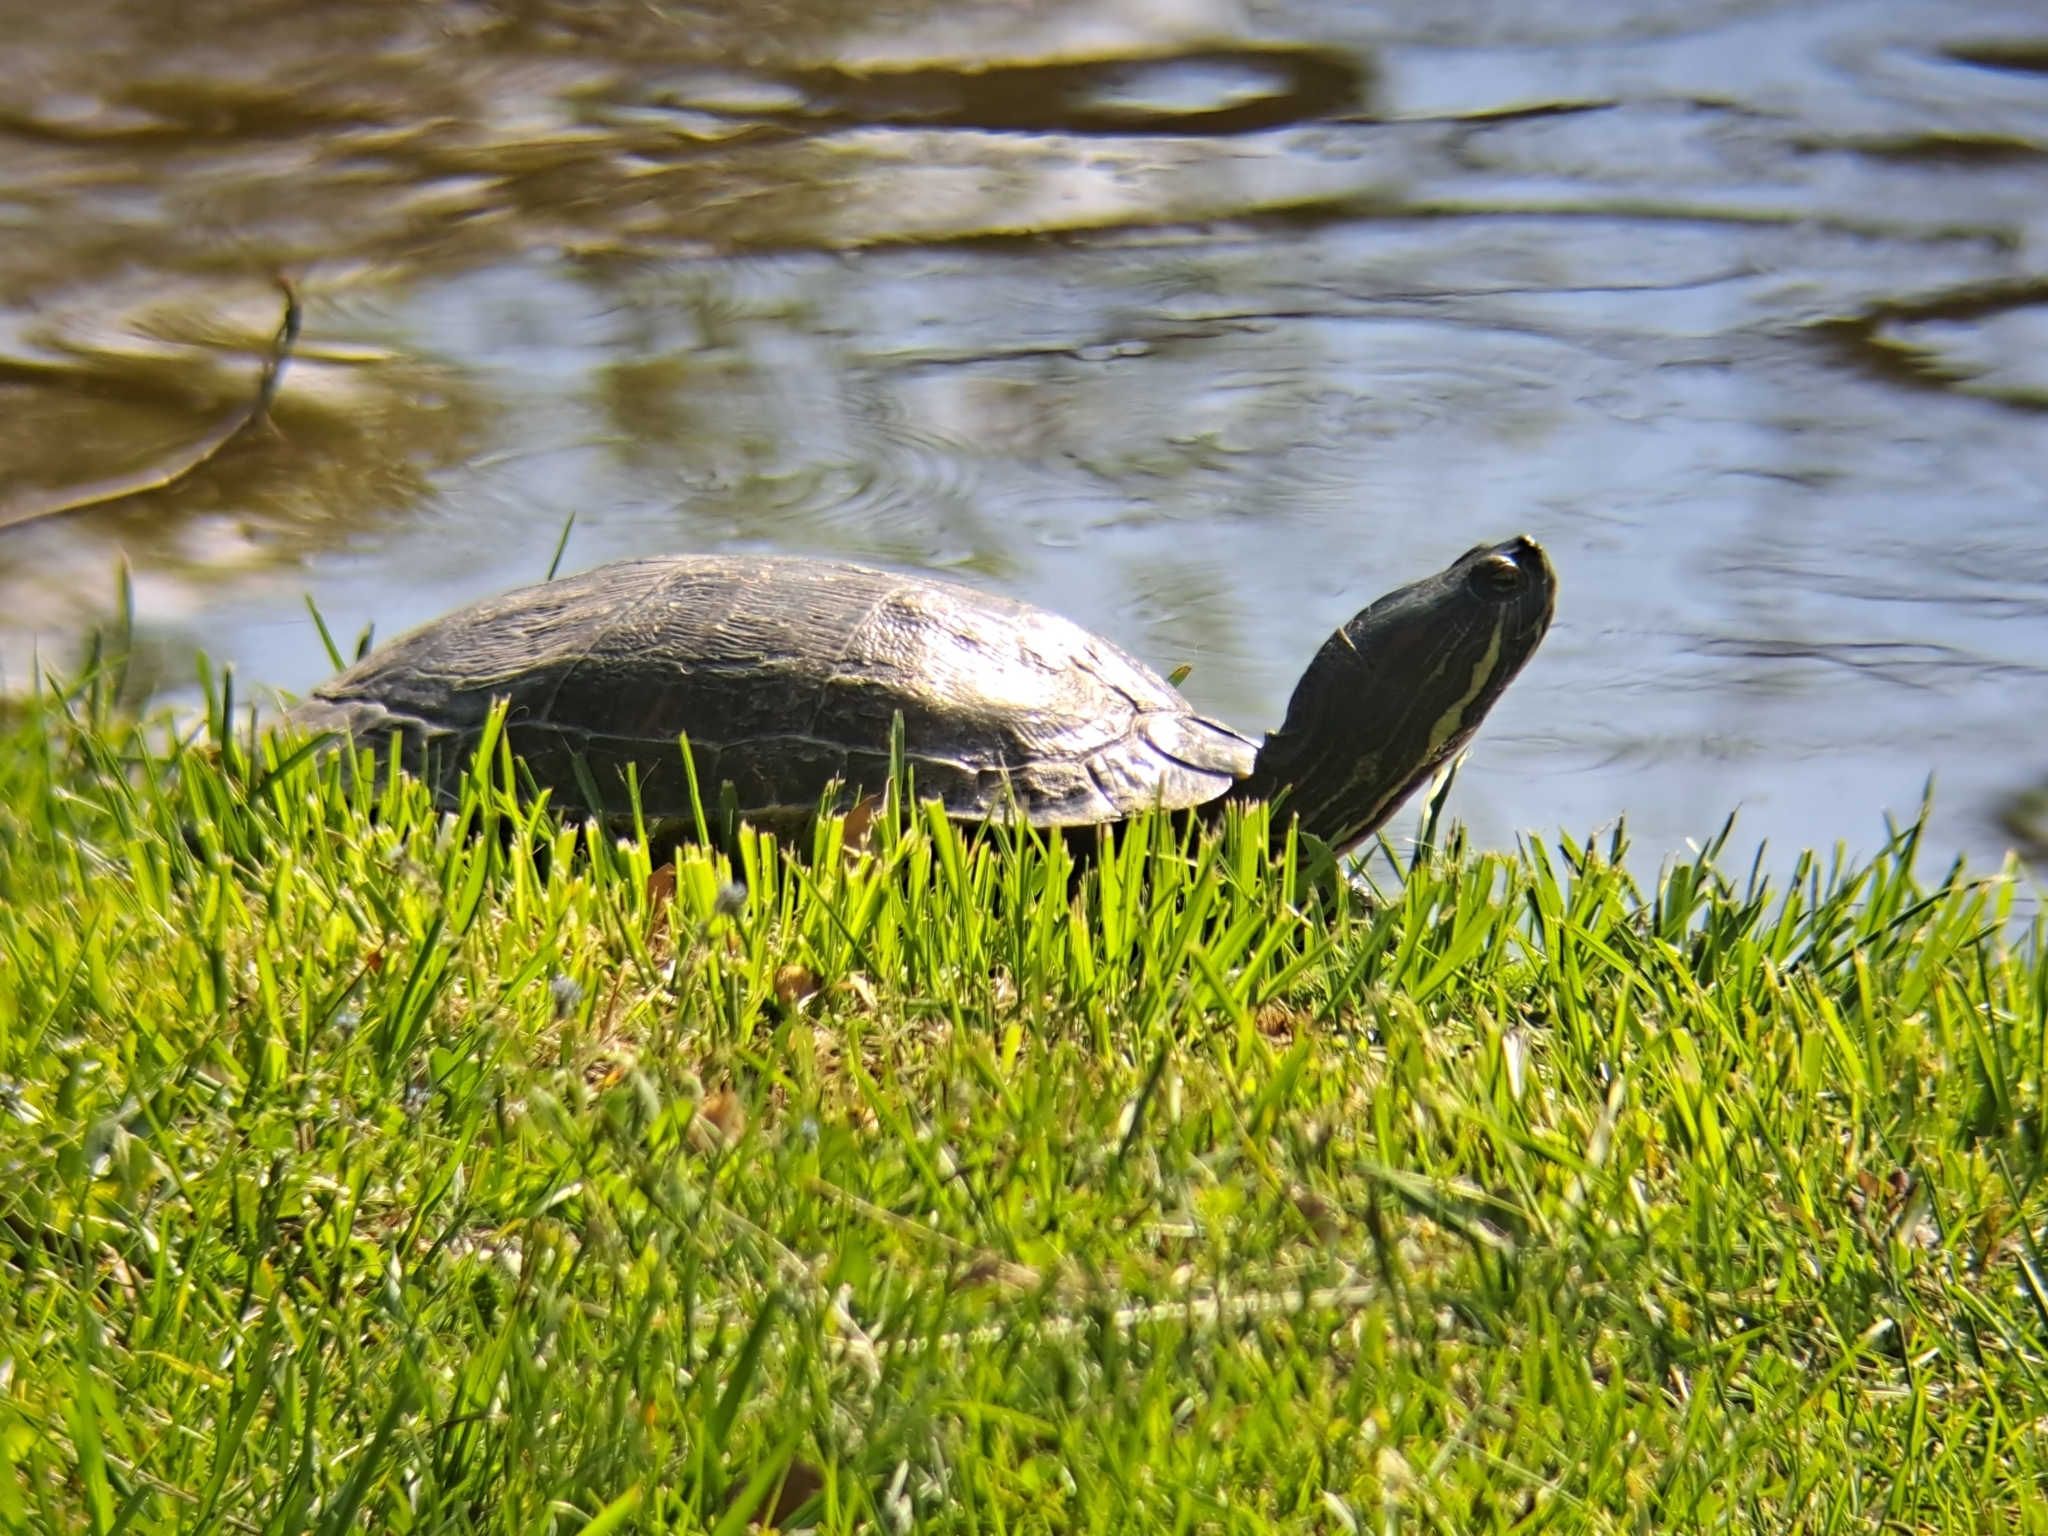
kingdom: Animalia
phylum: Chordata
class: Testudines
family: Emydidae
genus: Trachemys
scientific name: Trachemys scripta
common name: Slider
